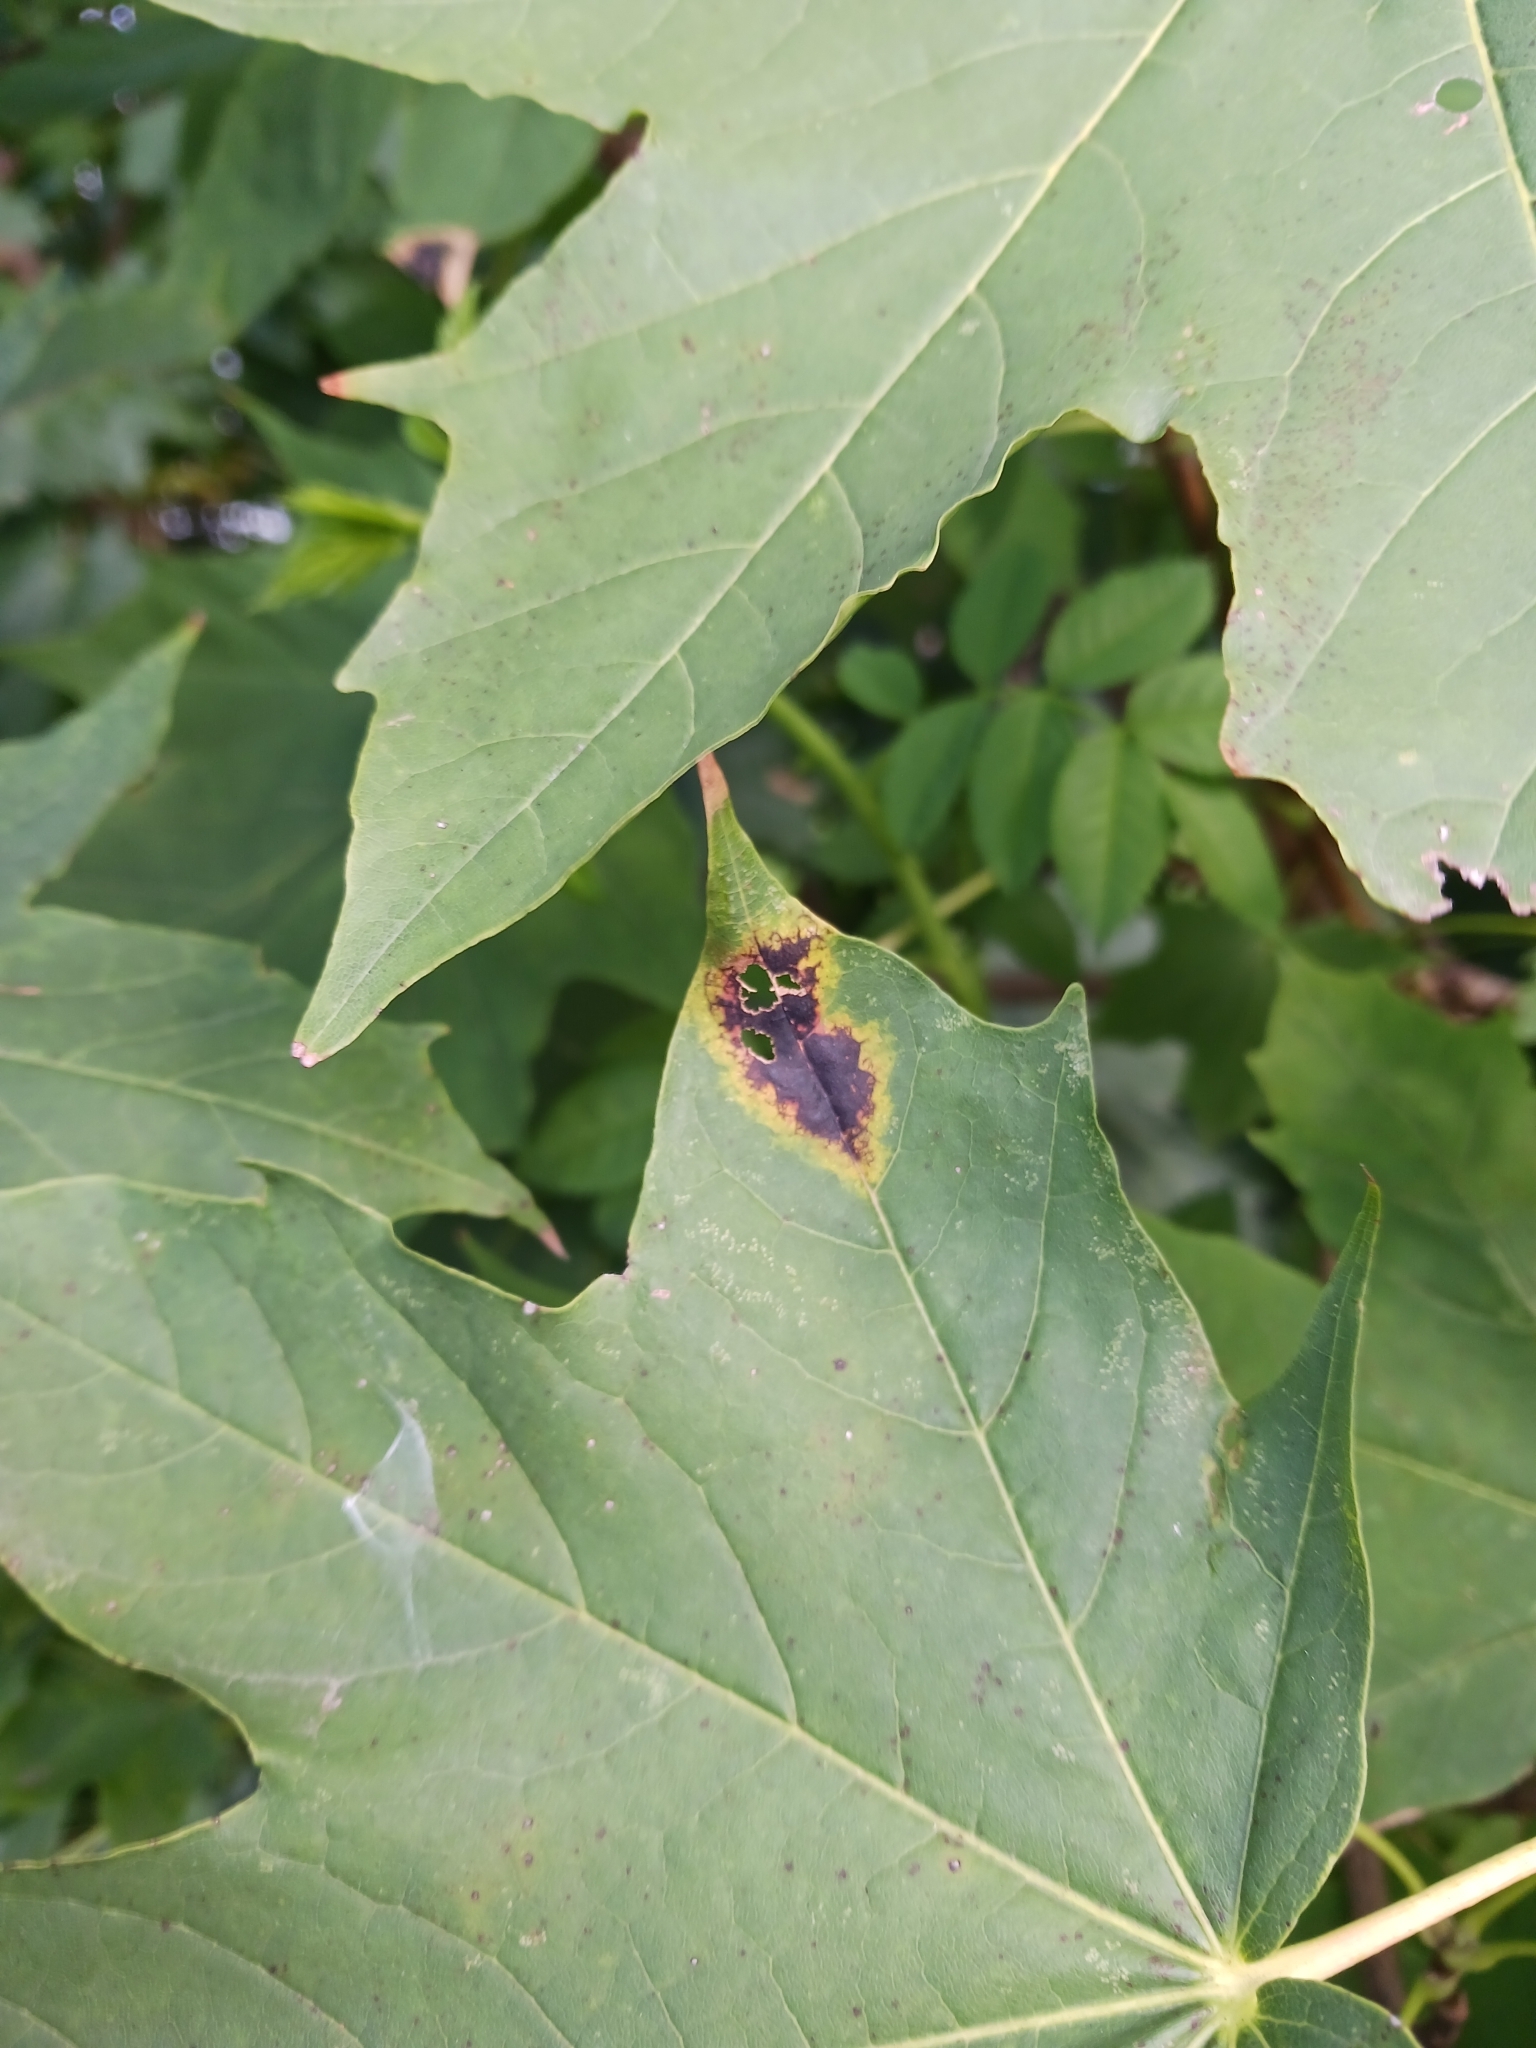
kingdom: Fungi
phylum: Ascomycota
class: Leotiomycetes
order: Rhytismatales
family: Rhytismataceae
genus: Rhytisma
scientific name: Rhytisma acerinum
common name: European tar spot
